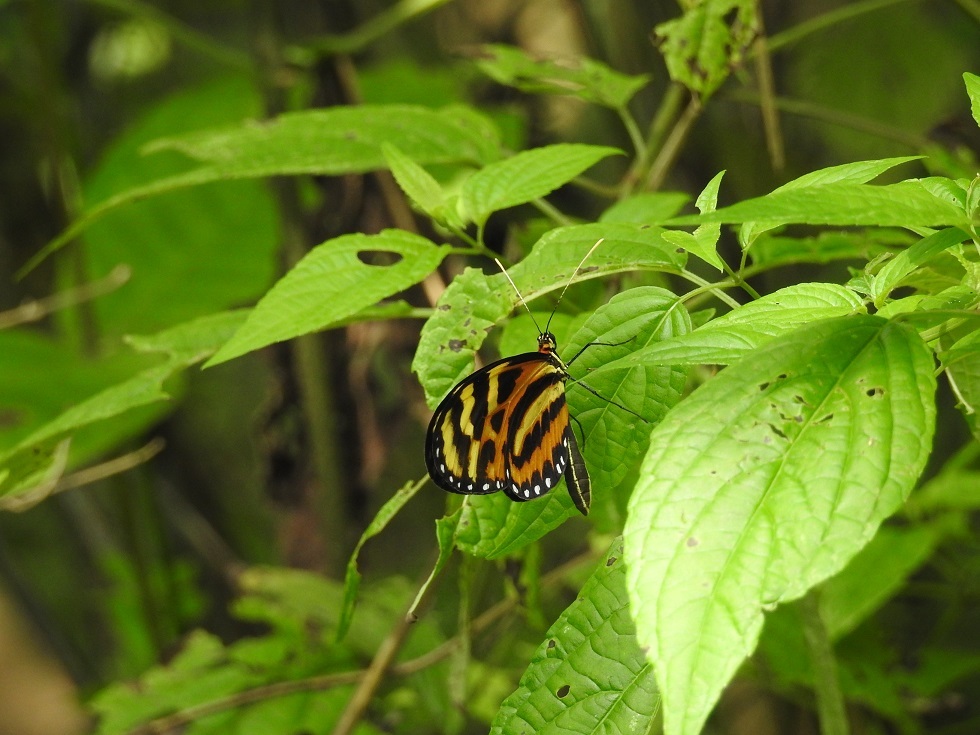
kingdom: Animalia
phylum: Arthropoda
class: Insecta
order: Lepidoptera
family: Nymphalidae
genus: Mechanitis
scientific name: Mechanitis lysimnia
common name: Lysimnia tigerwing
